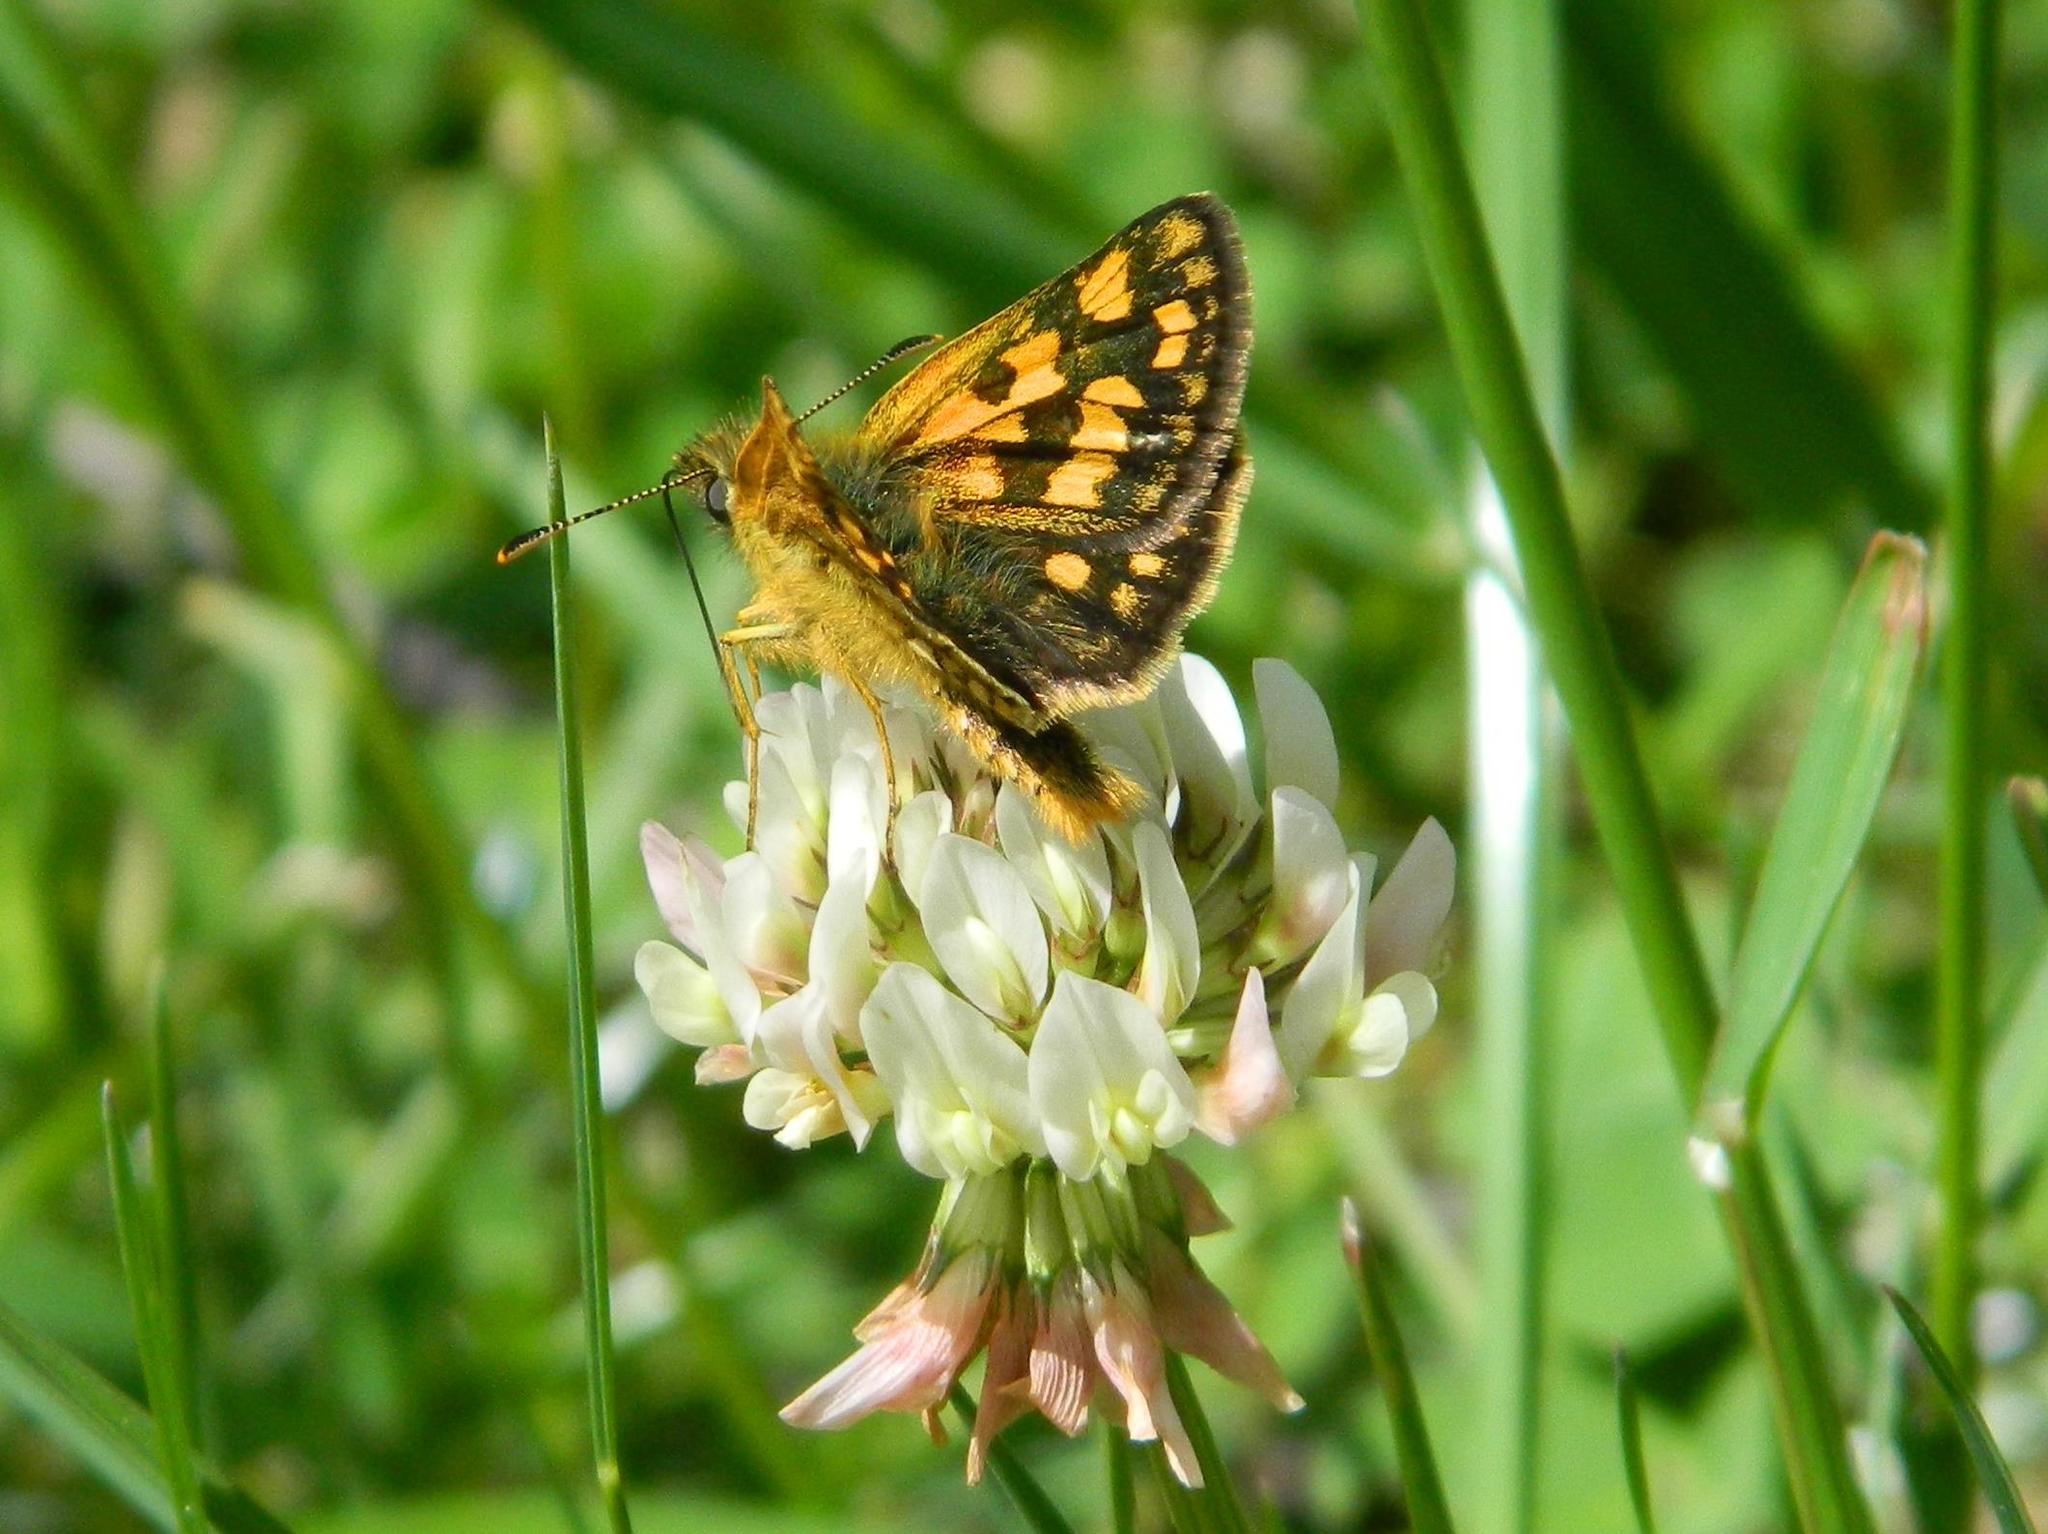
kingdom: Animalia
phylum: Arthropoda
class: Insecta
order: Lepidoptera
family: Hesperiidae
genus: Carterocephalus
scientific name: Carterocephalus palaemon
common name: Chequered skipper
